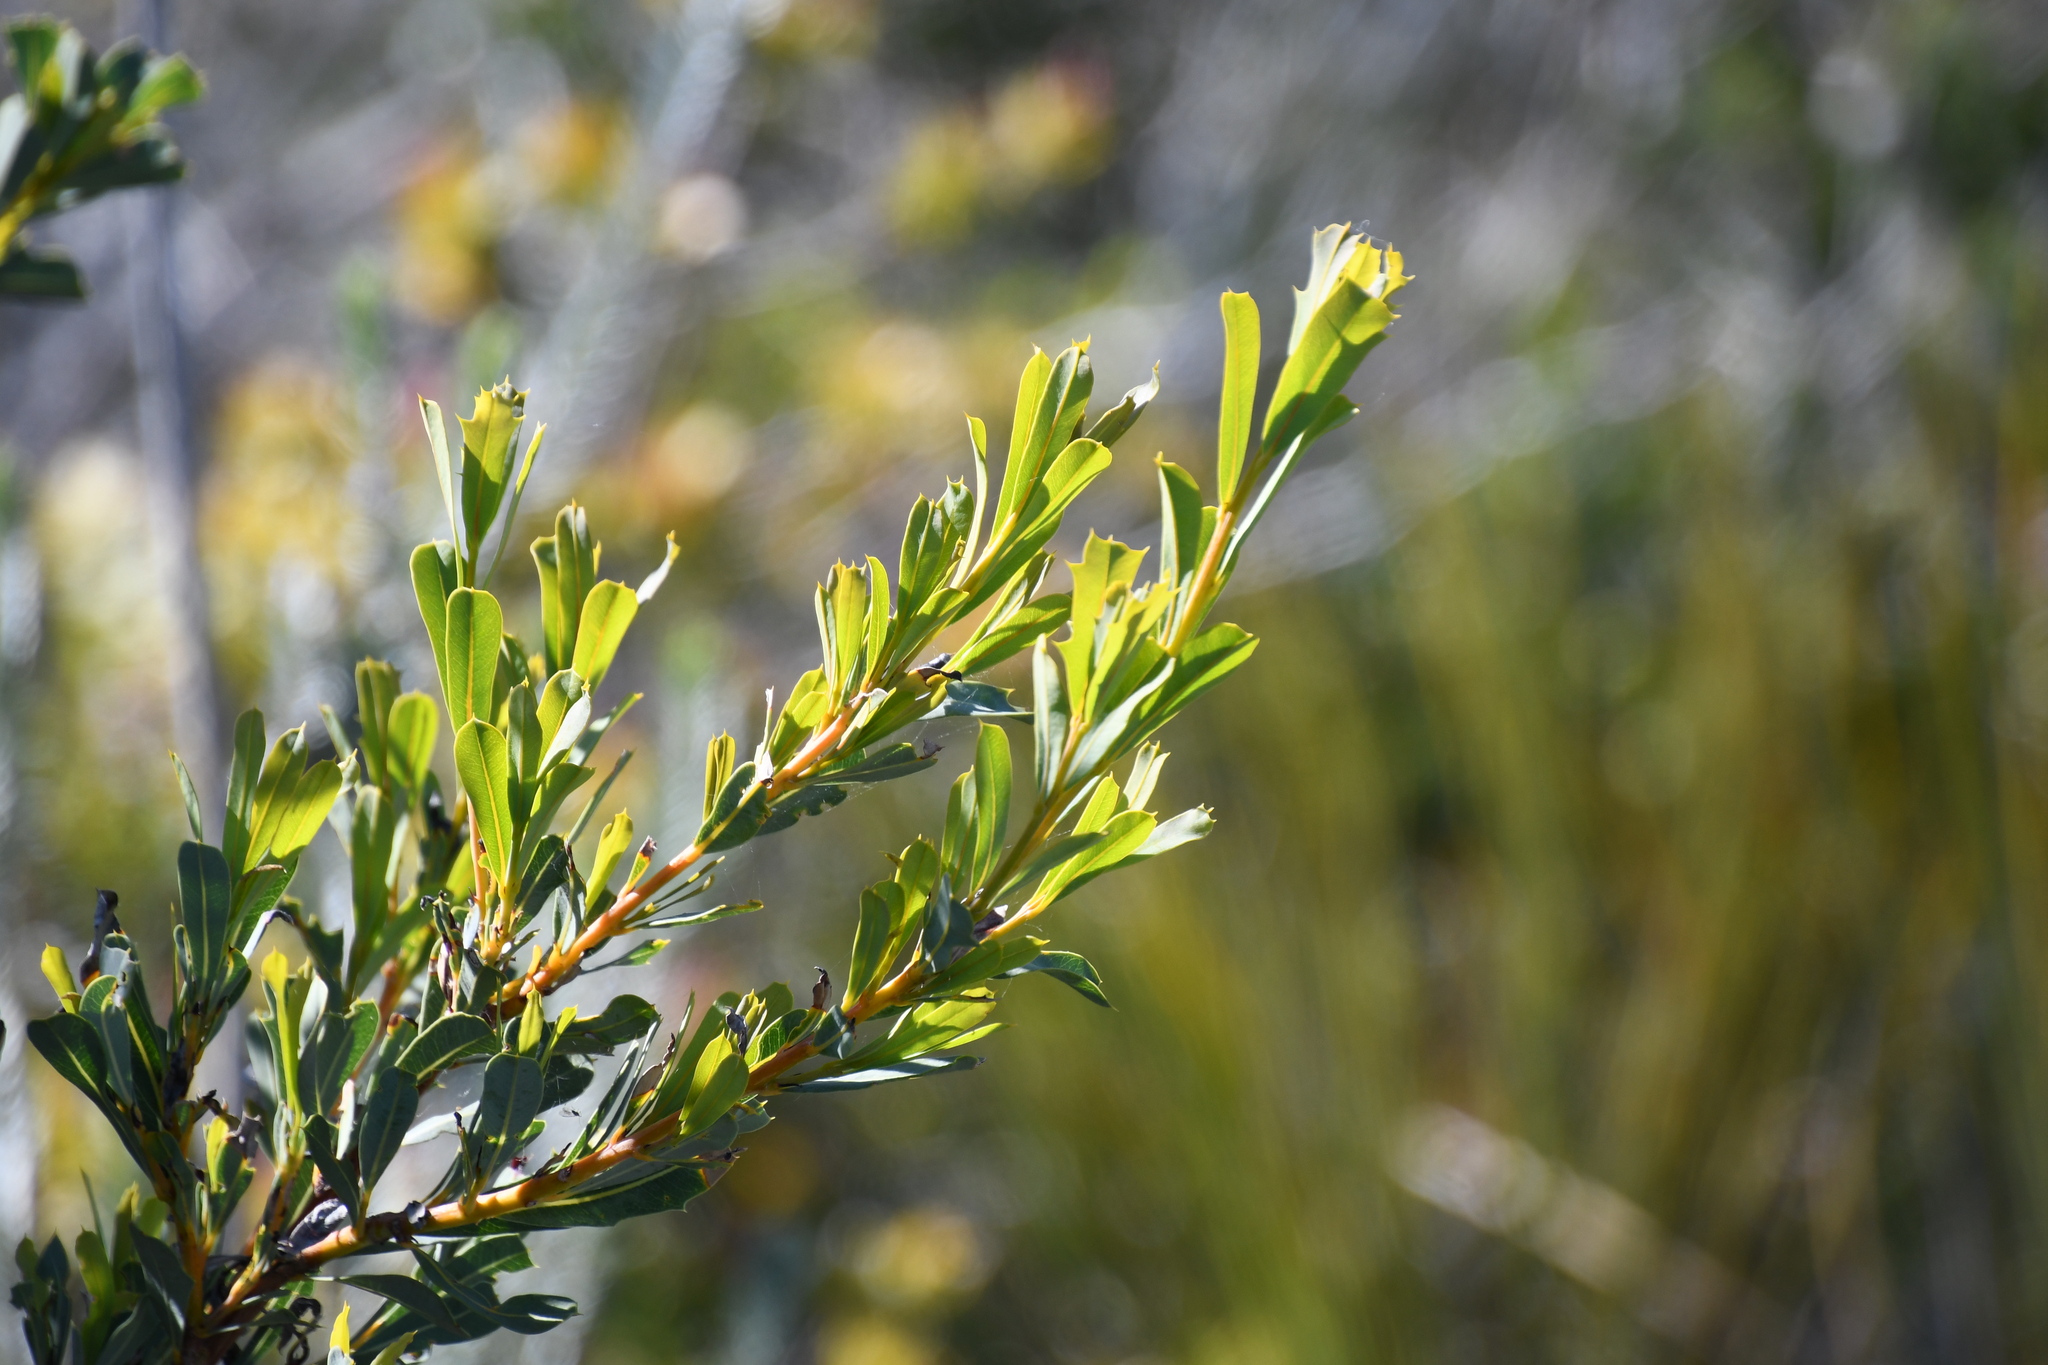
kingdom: Plantae
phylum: Tracheophyta
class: Magnoliopsida
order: Proteales
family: Proteaceae
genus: Banksia
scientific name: Banksia oreophila
